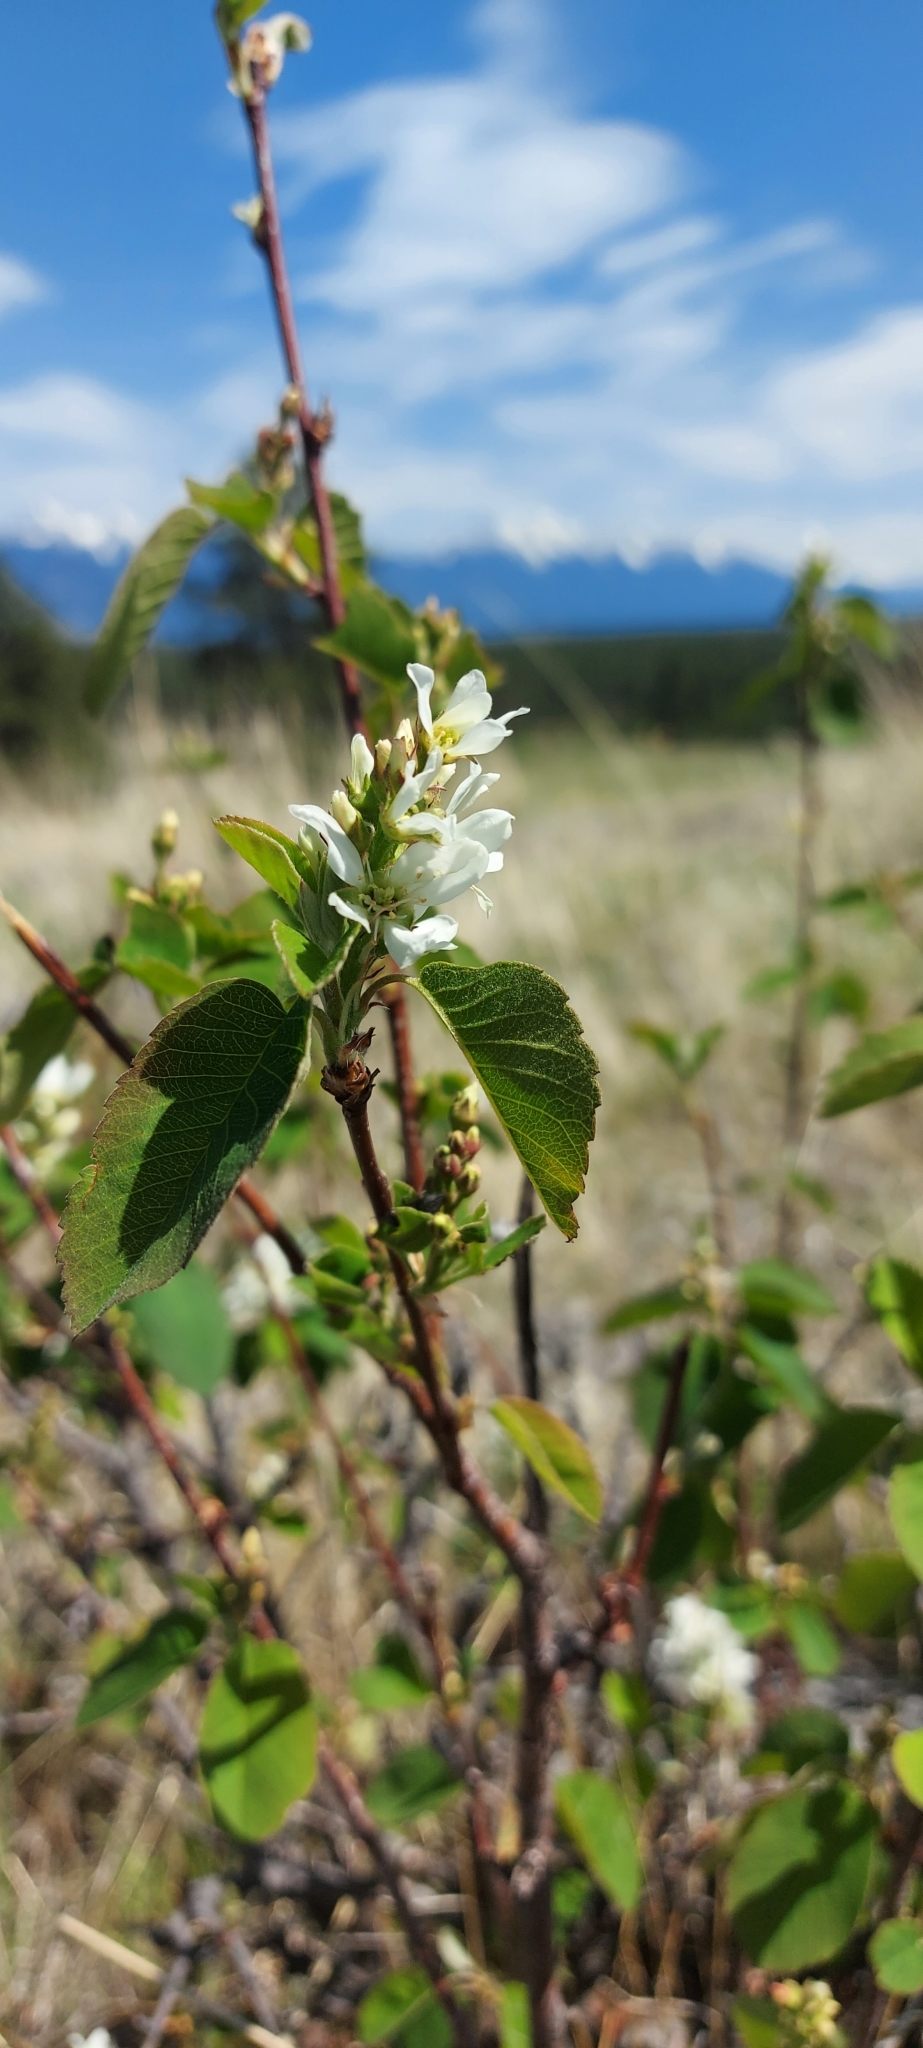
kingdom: Plantae
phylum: Tracheophyta
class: Magnoliopsida
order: Rosales
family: Rosaceae
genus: Amelanchier
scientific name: Amelanchier alnifolia
